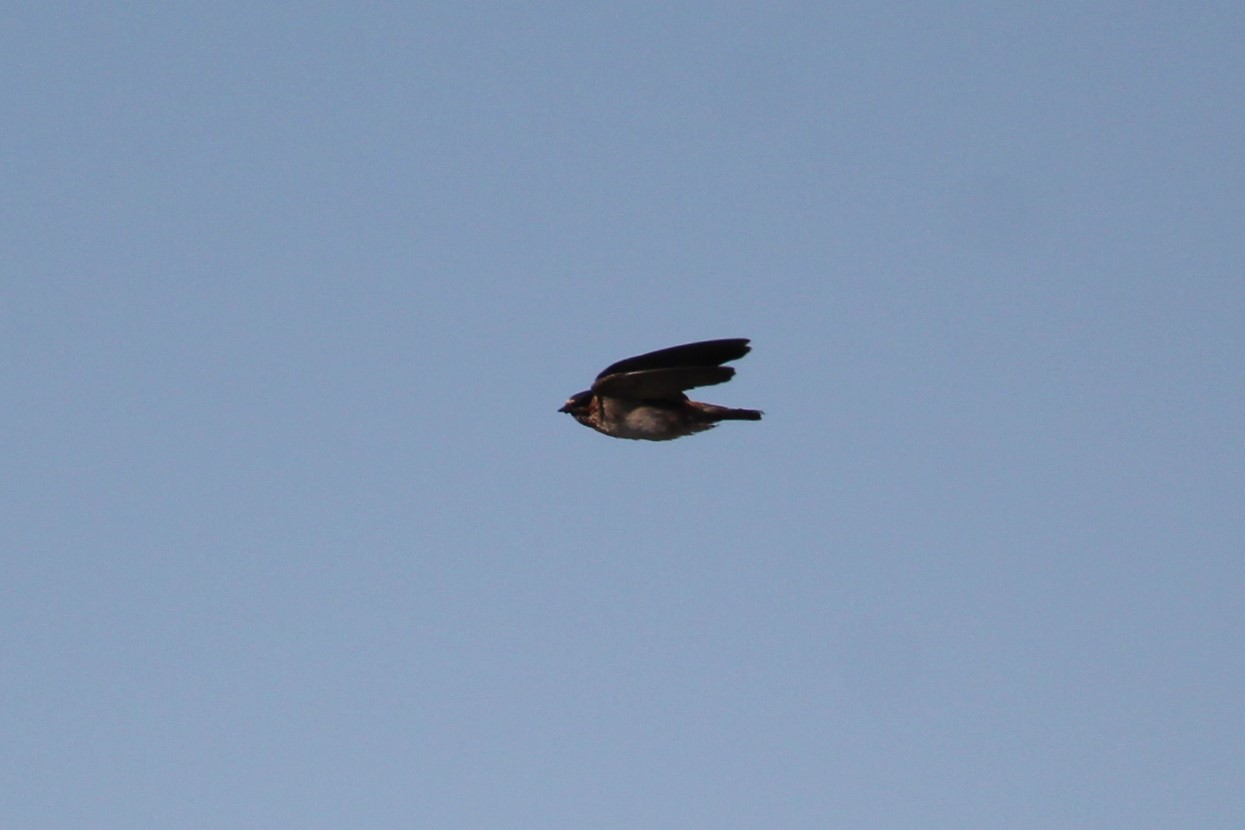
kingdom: Animalia
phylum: Chordata
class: Aves
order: Passeriformes
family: Hirundinidae
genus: Petrochelidon
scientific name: Petrochelidon pyrrhonota
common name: American cliff swallow
